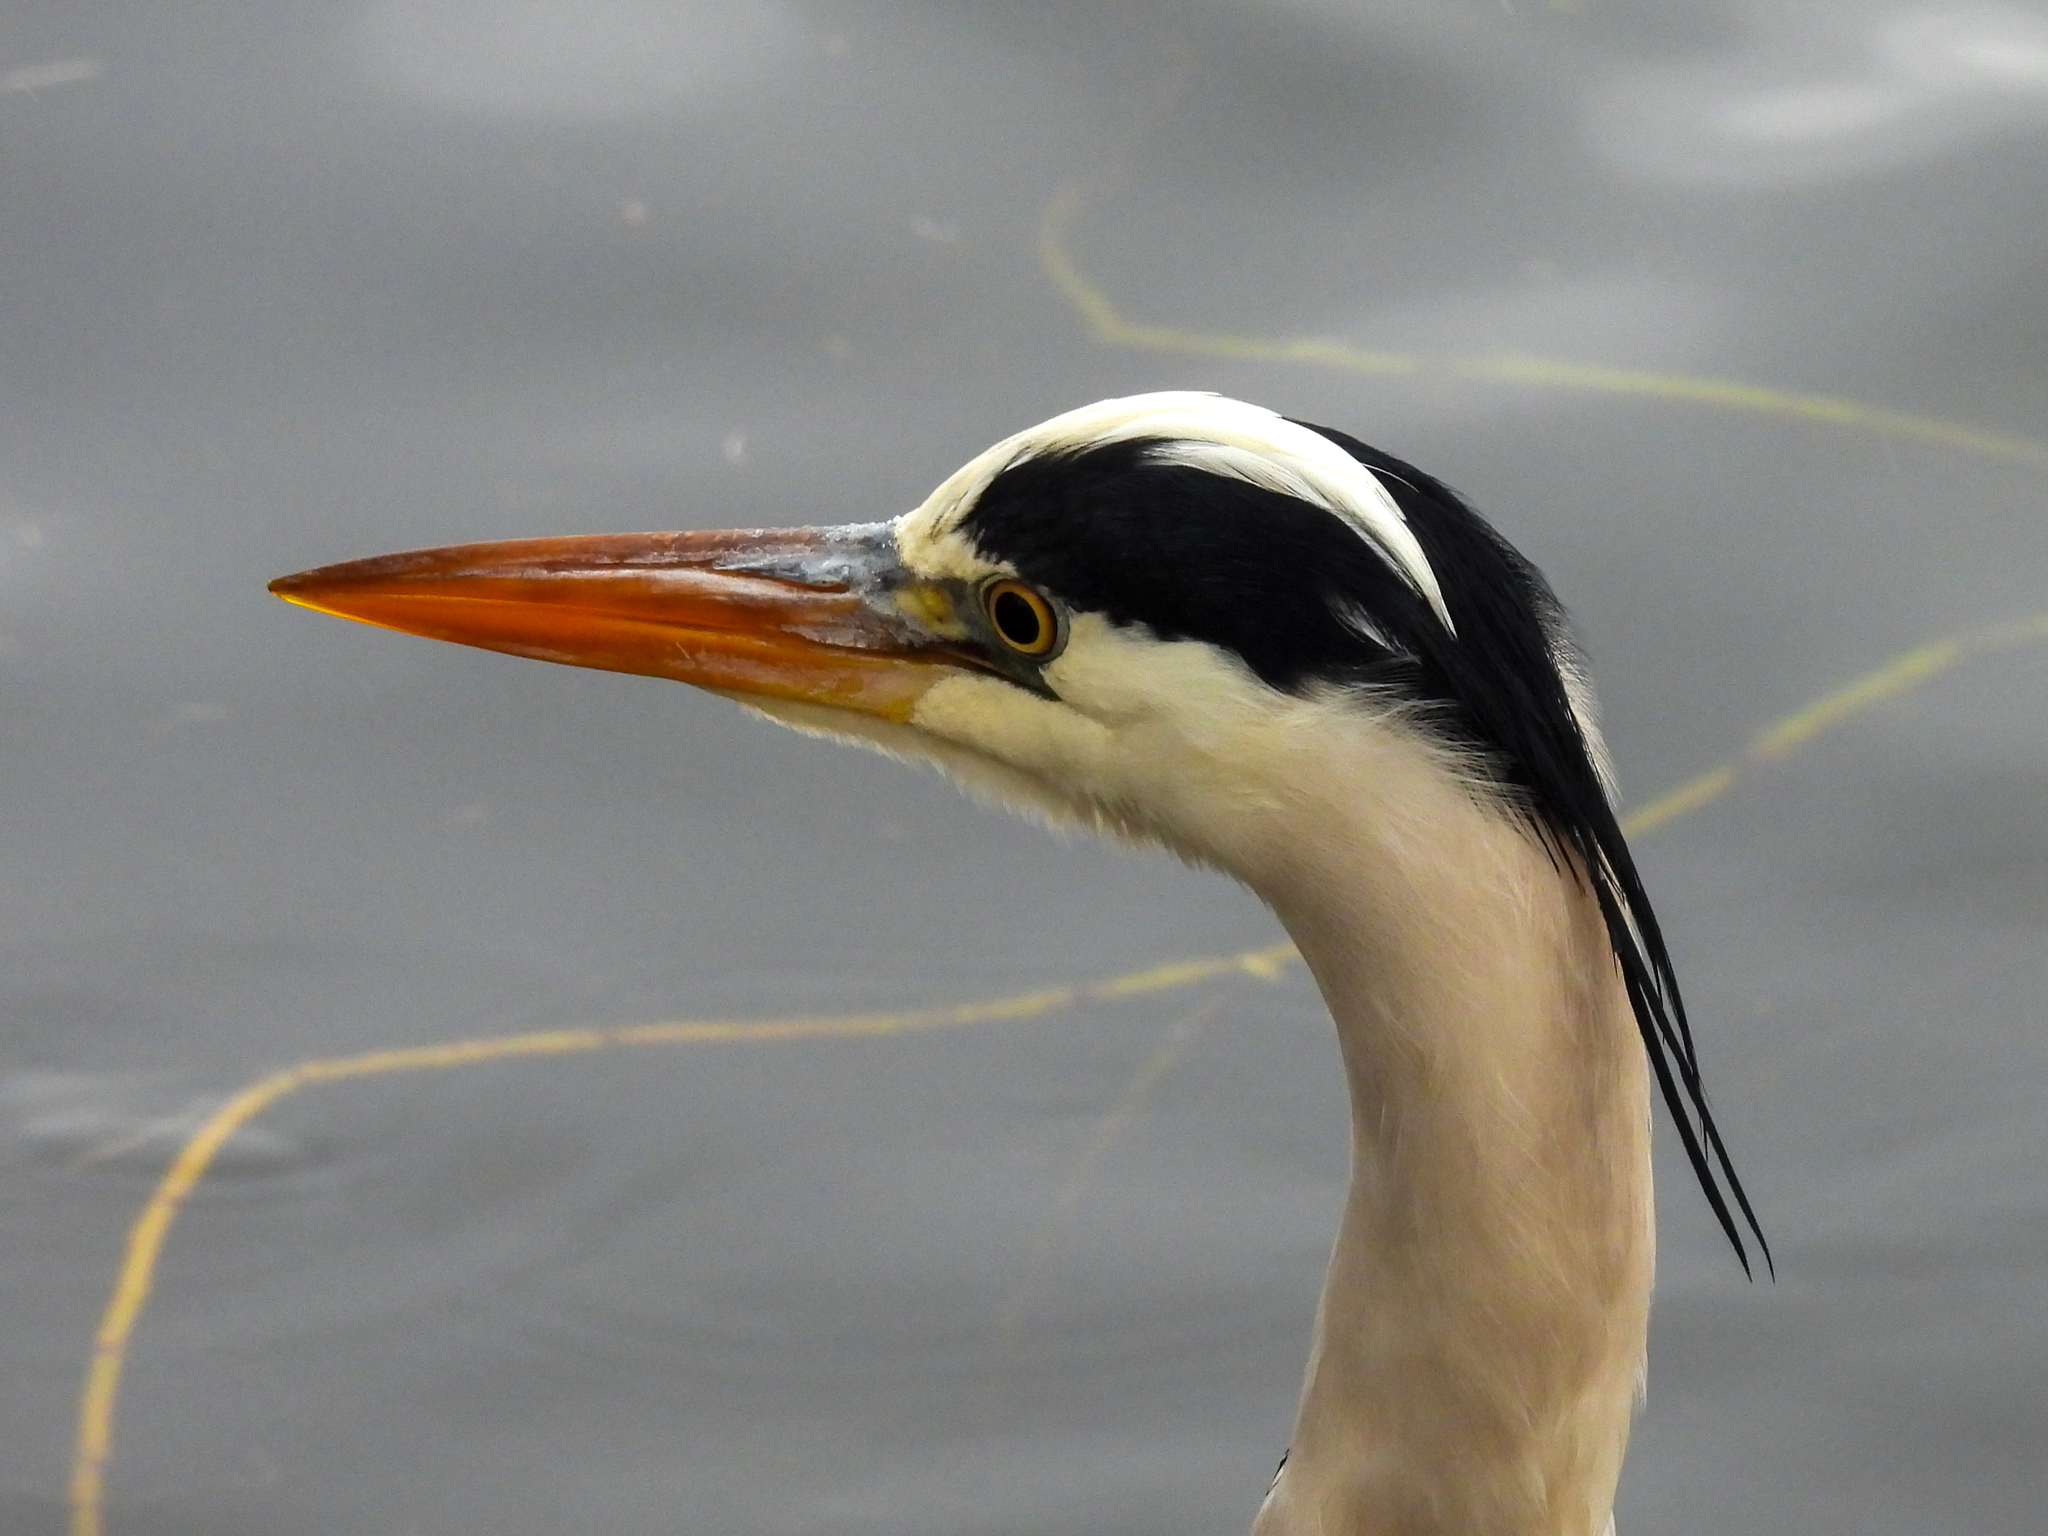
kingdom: Animalia
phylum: Chordata
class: Aves
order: Pelecaniformes
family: Ardeidae
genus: Ardea
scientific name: Ardea cinerea
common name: Grey heron
